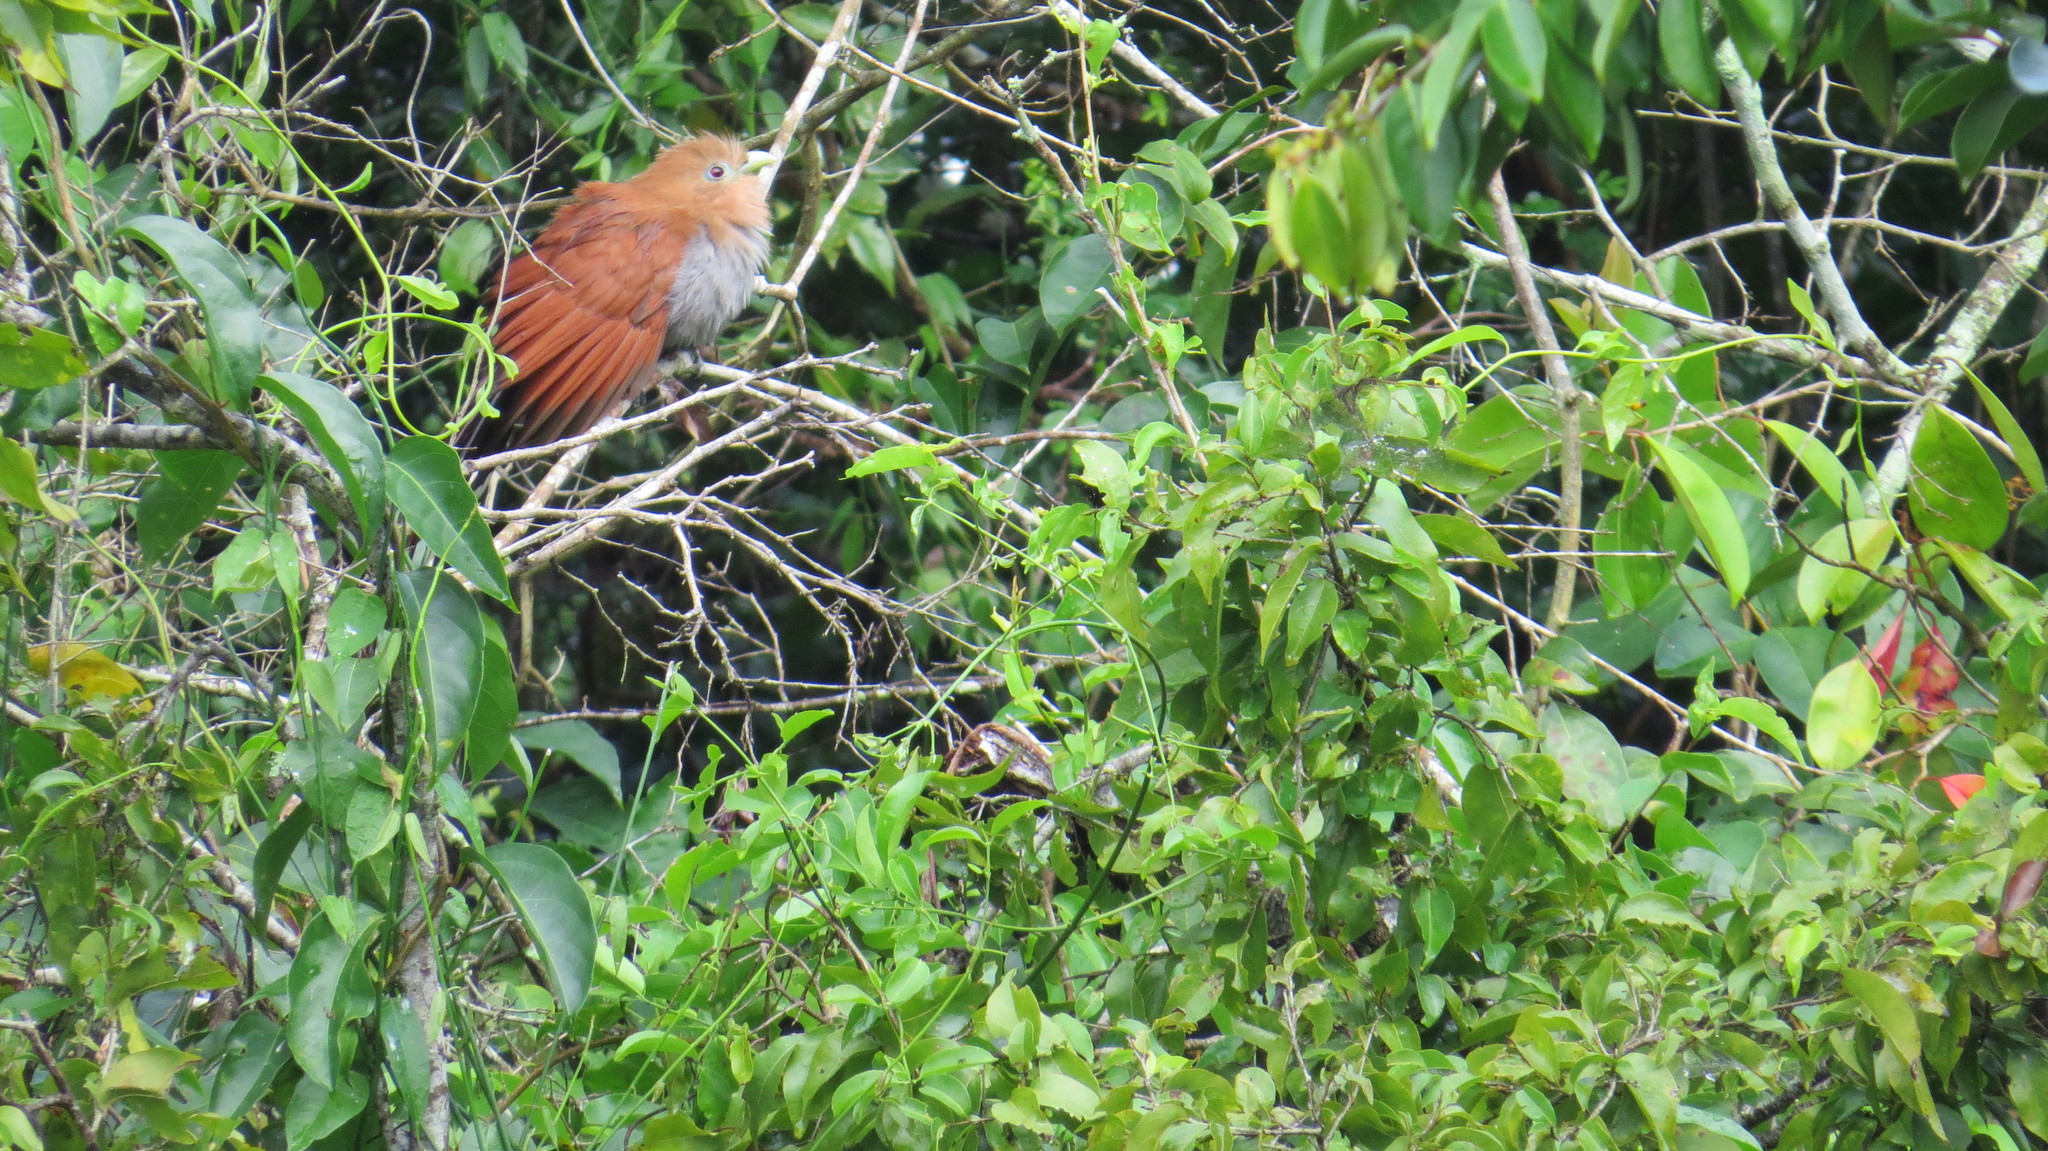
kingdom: Animalia
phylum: Chordata
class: Aves
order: Cuculiformes
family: Cuculidae
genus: Piaya
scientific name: Piaya cayana
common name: Squirrel cuckoo
